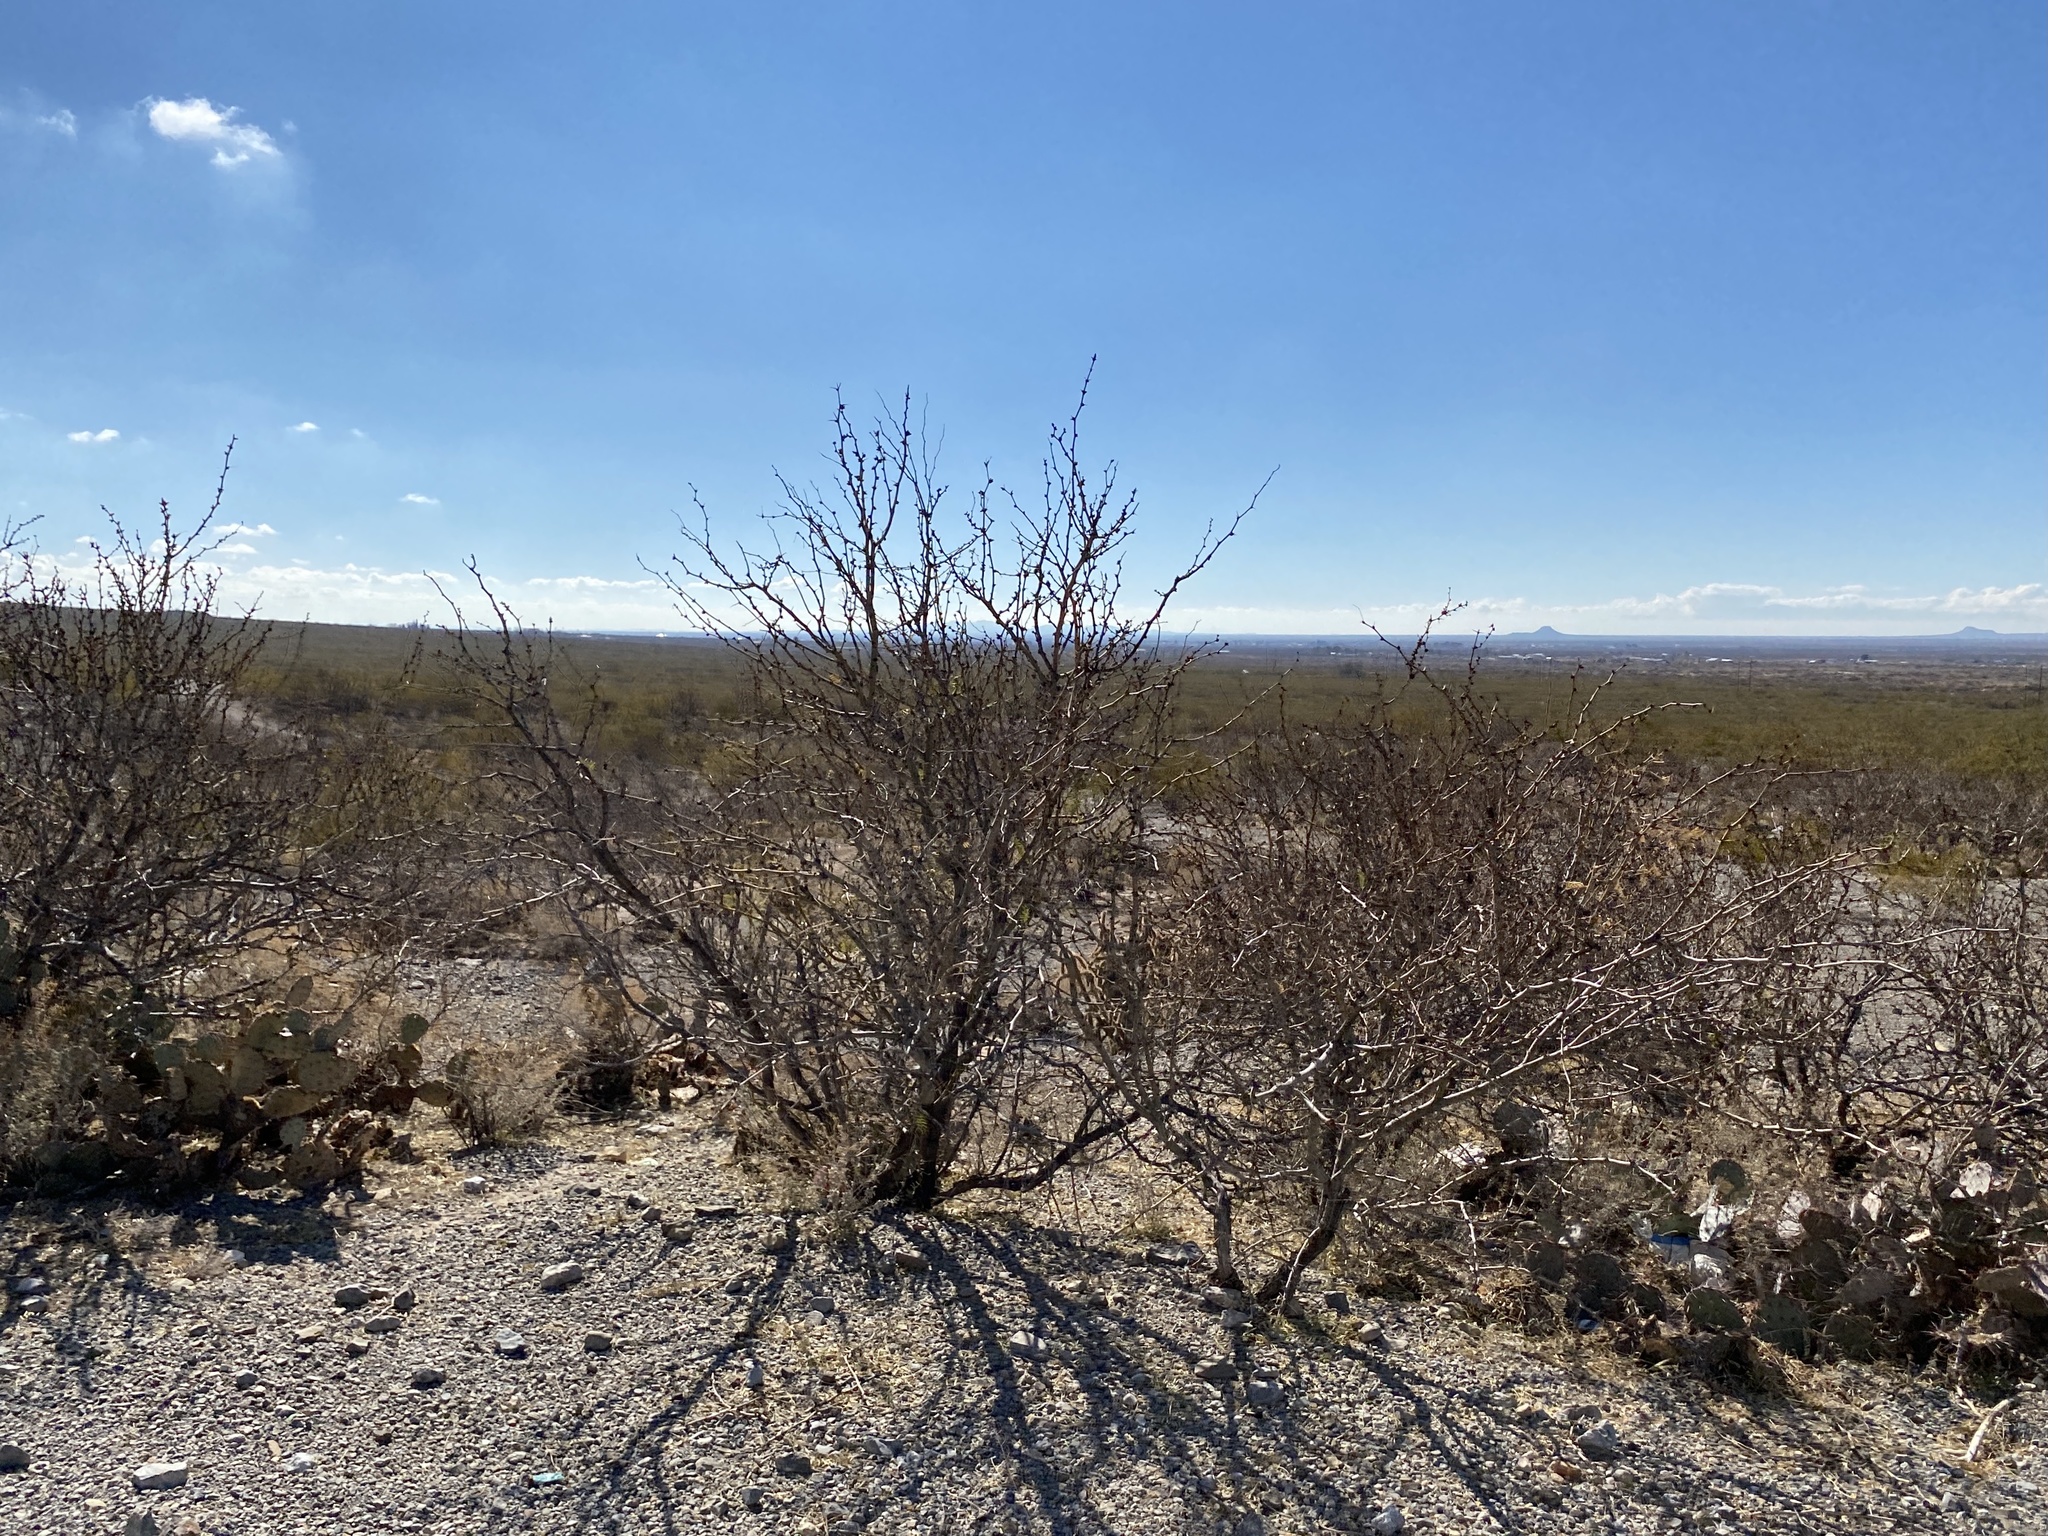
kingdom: Plantae
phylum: Tracheophyta
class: Magnoliopsida
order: Fabales
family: Fabaceae
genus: Prosopis
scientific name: Prosopis glandulosa
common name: Honey mesquite
